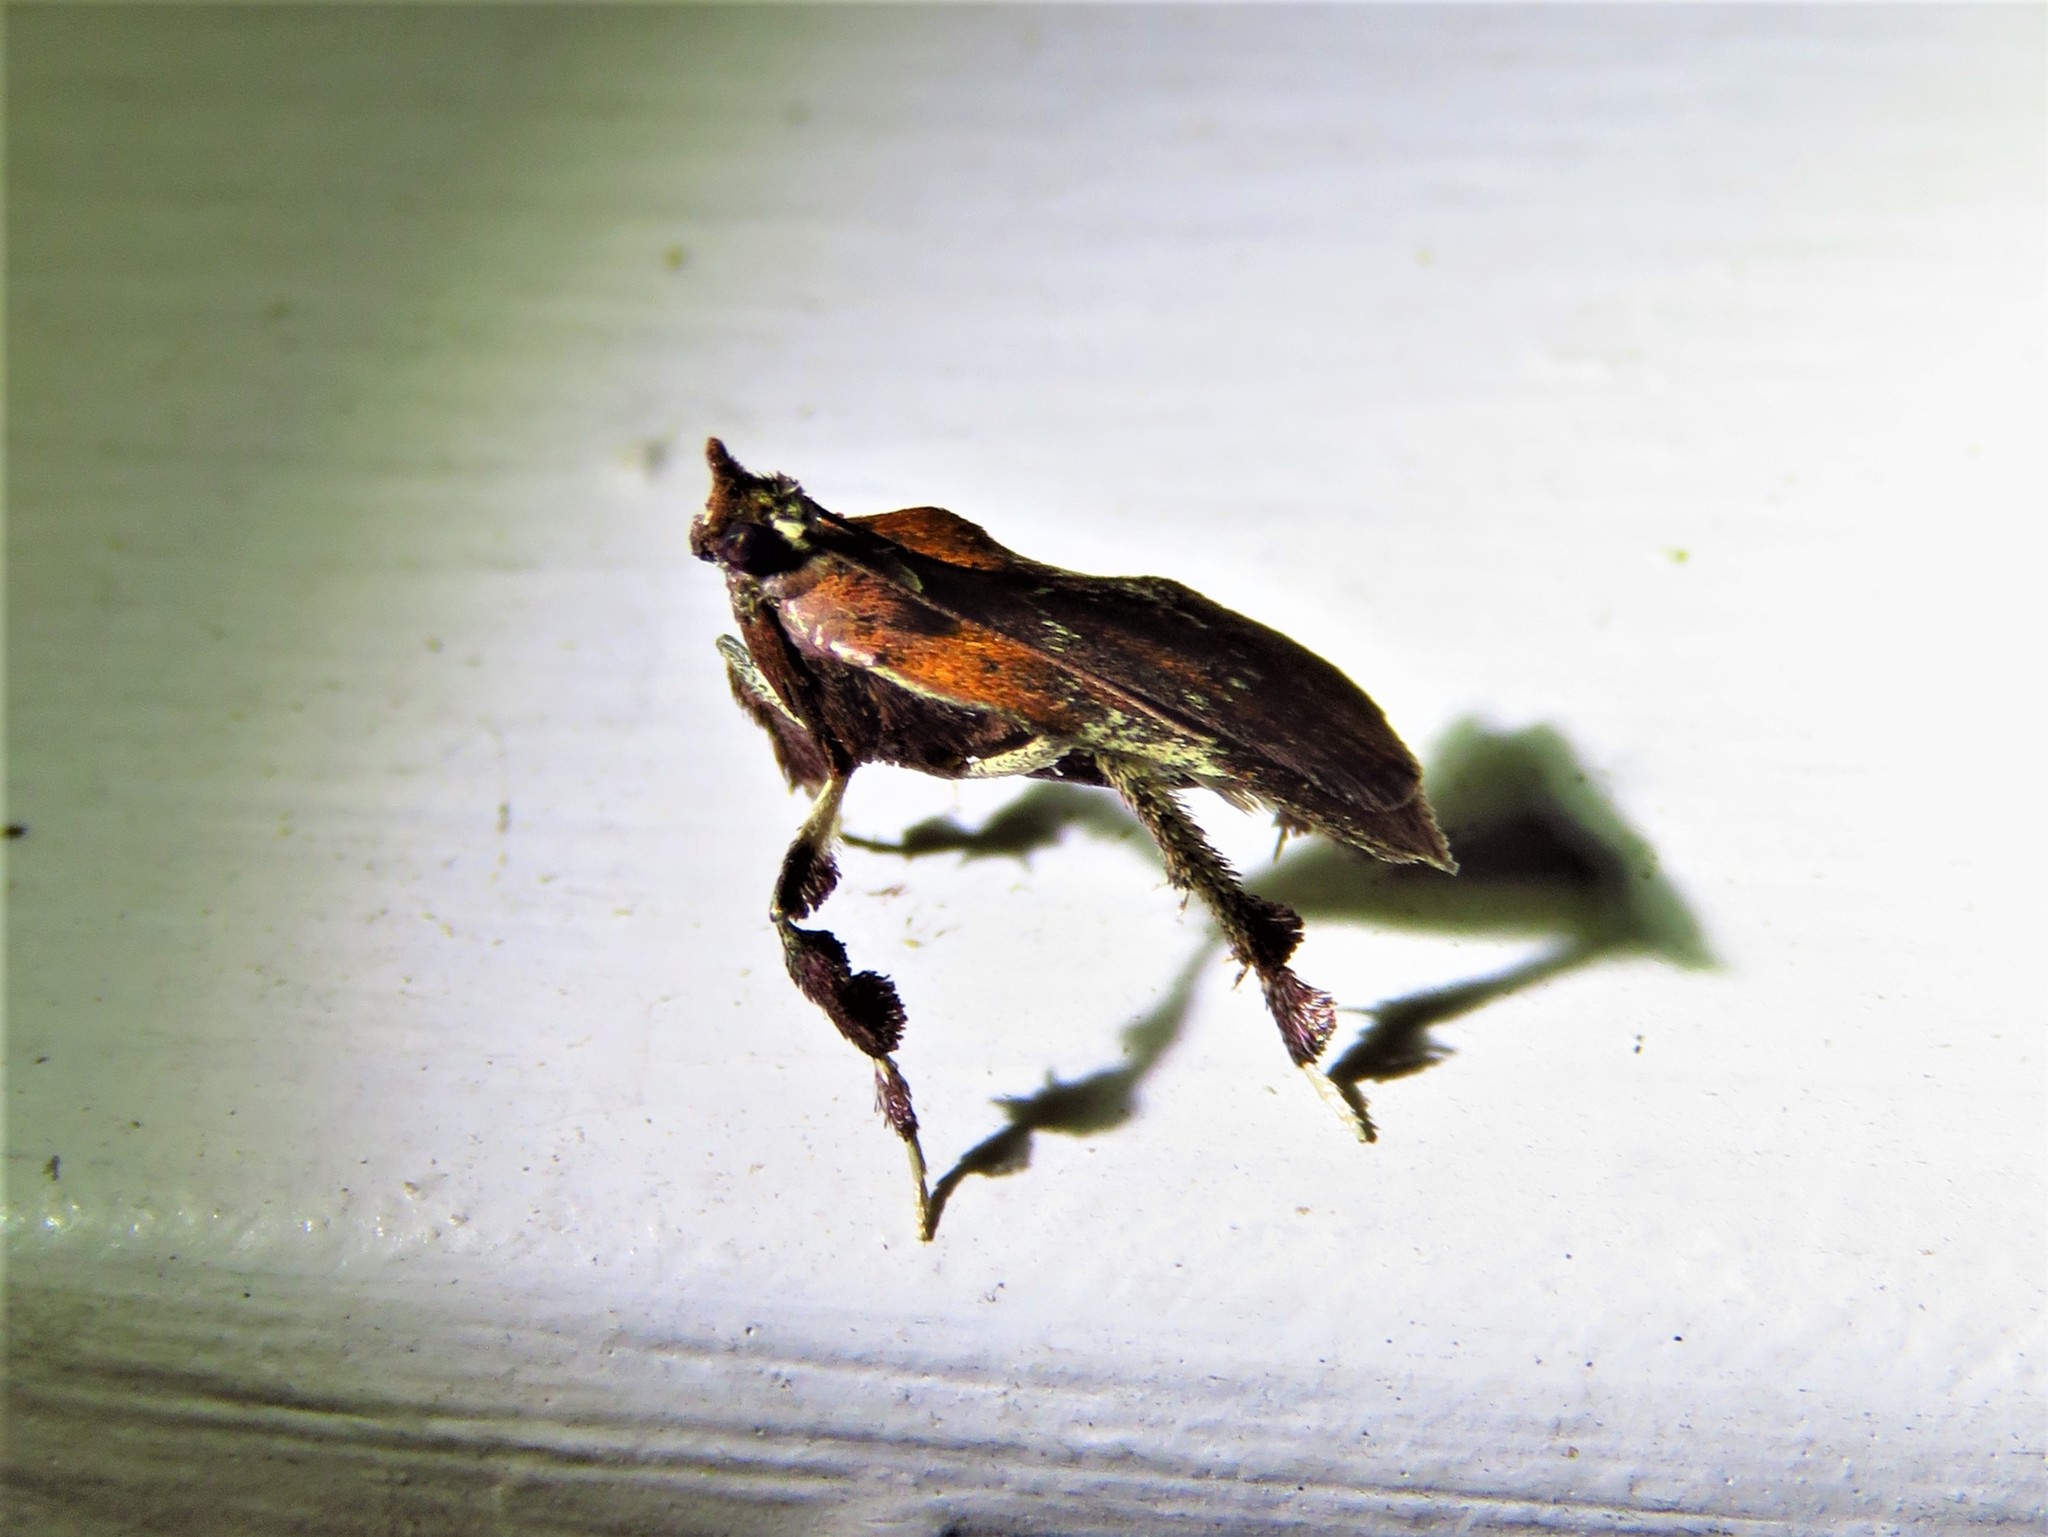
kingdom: Animalia
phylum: Arthropoda
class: Insecta
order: Lepidoptera
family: Pyralidae
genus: Galasa
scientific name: Galasa nigrinodis
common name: Boxwood leaftier moth
